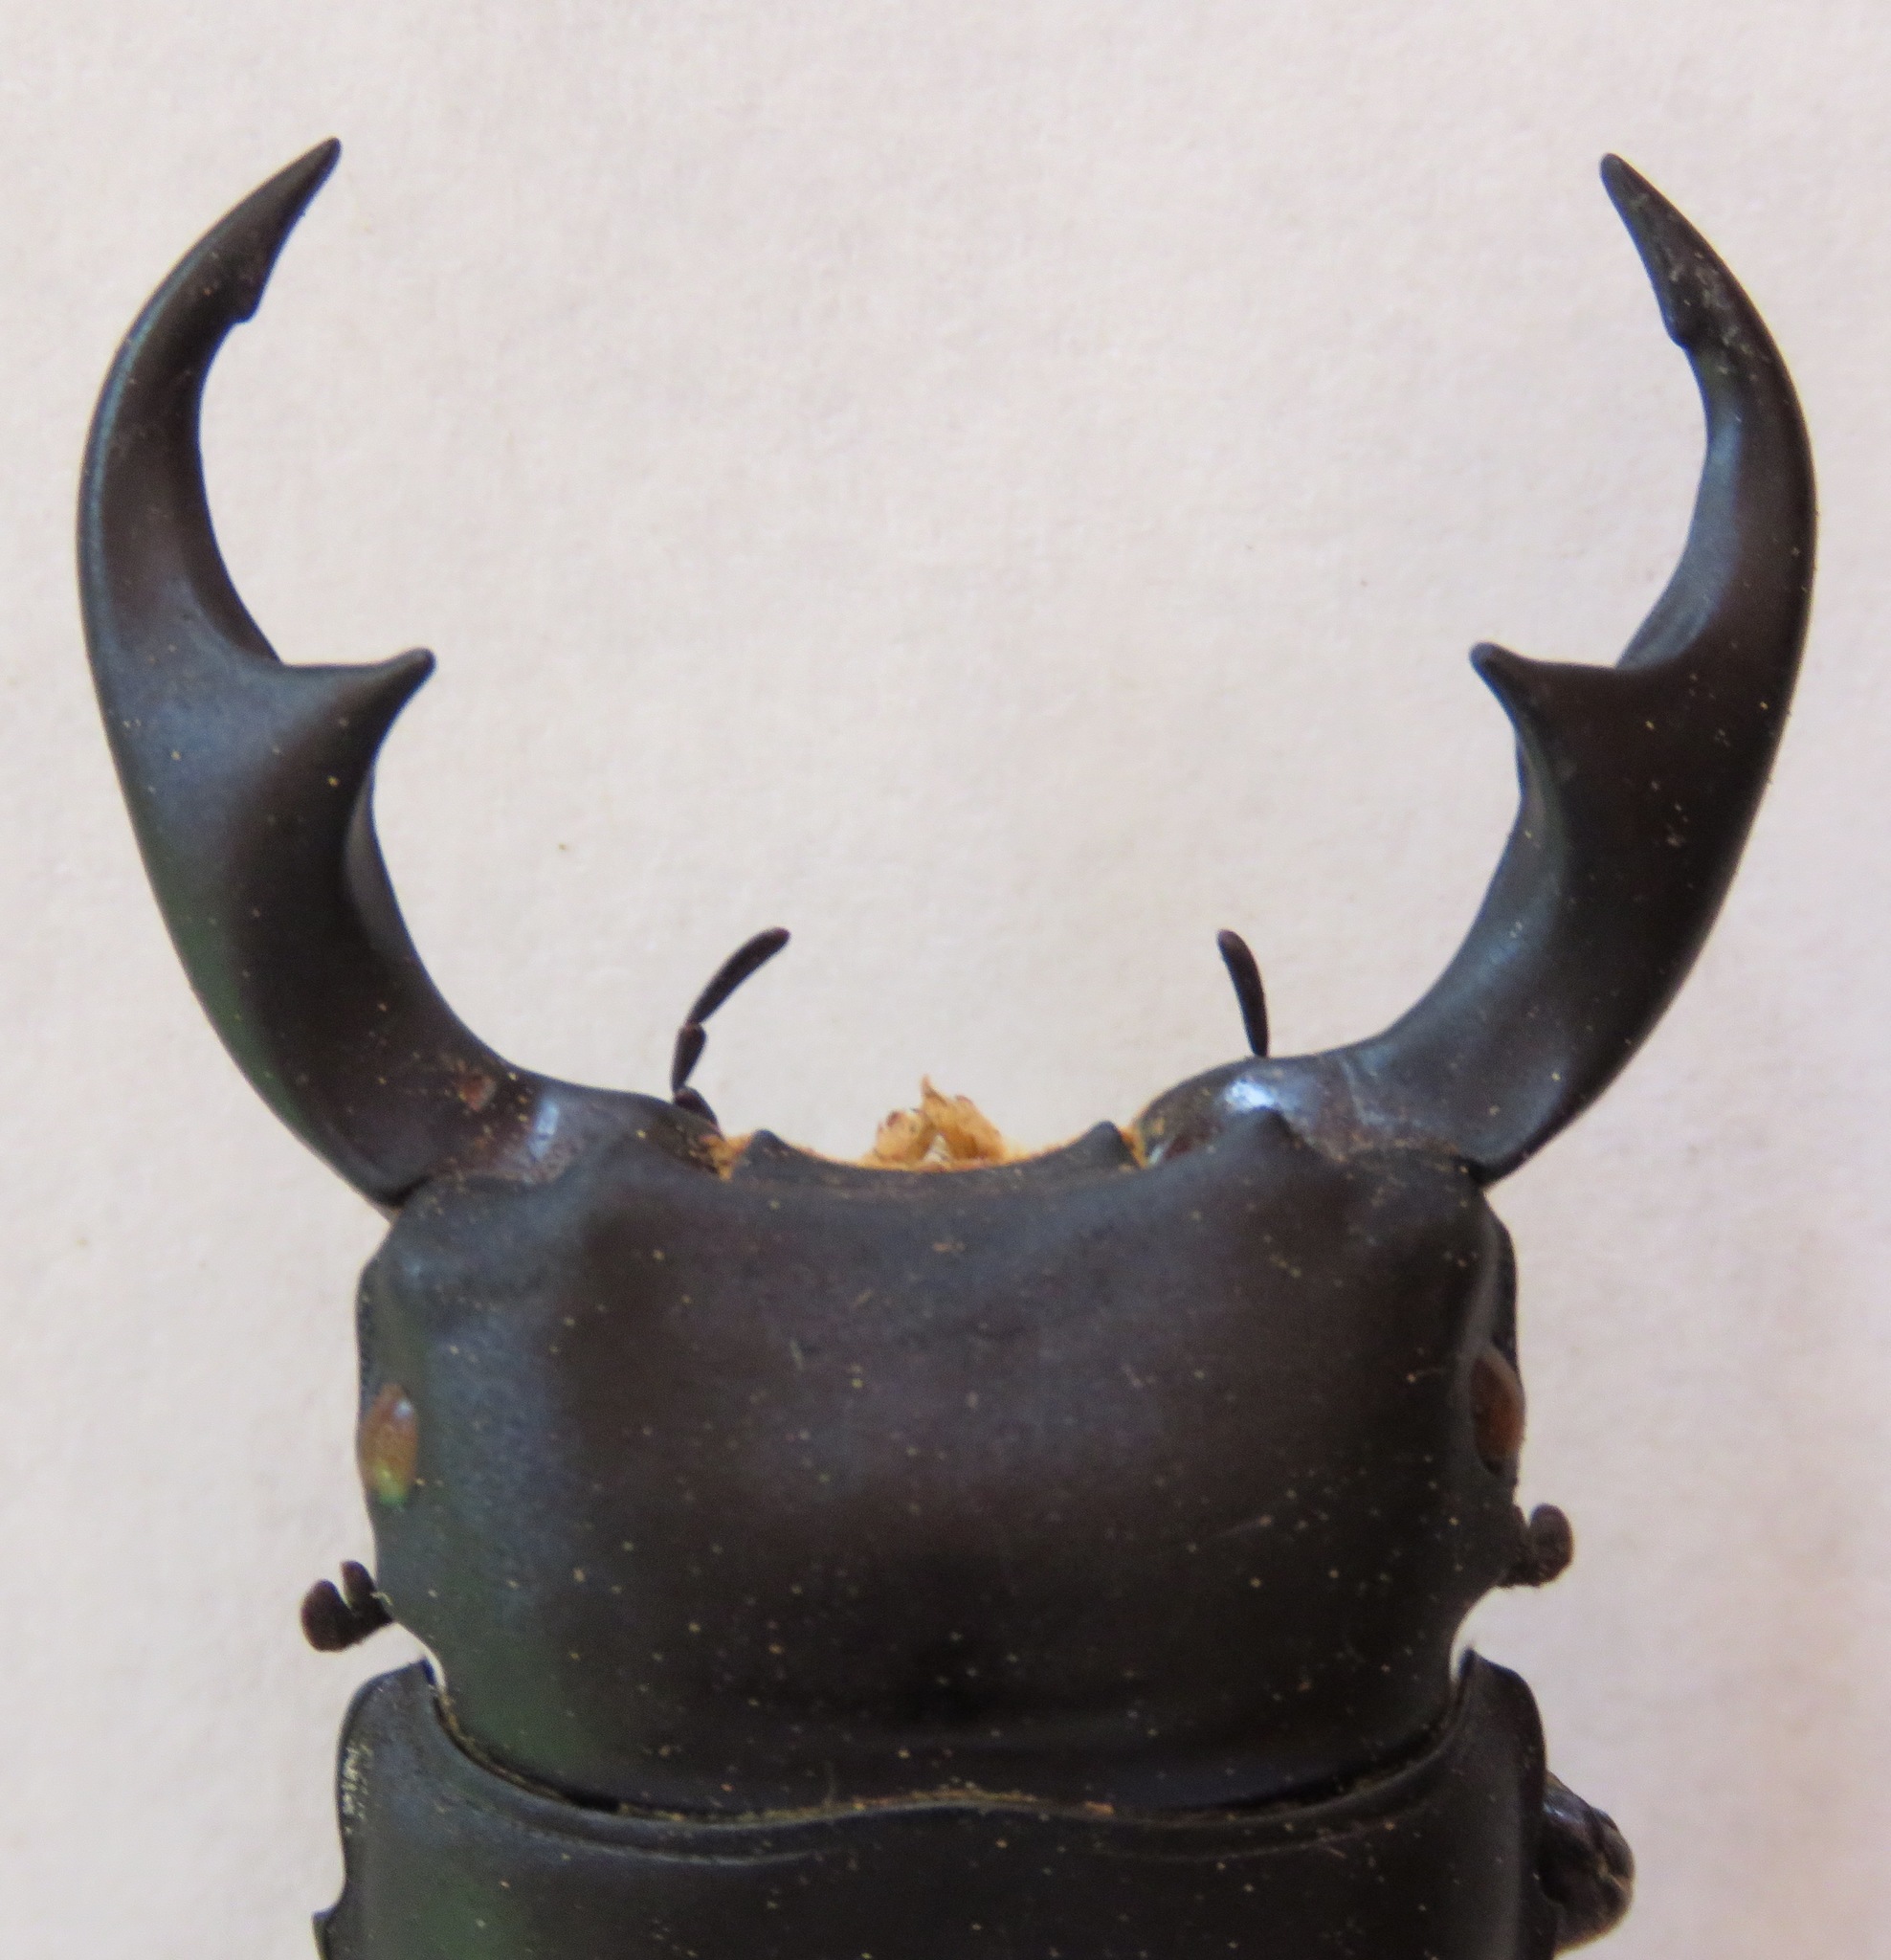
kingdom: Animalia
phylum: Arthropoda
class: Insecta
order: Coleoptera
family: Lucanidae
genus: Dorcus
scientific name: Dorcus ritsemae
